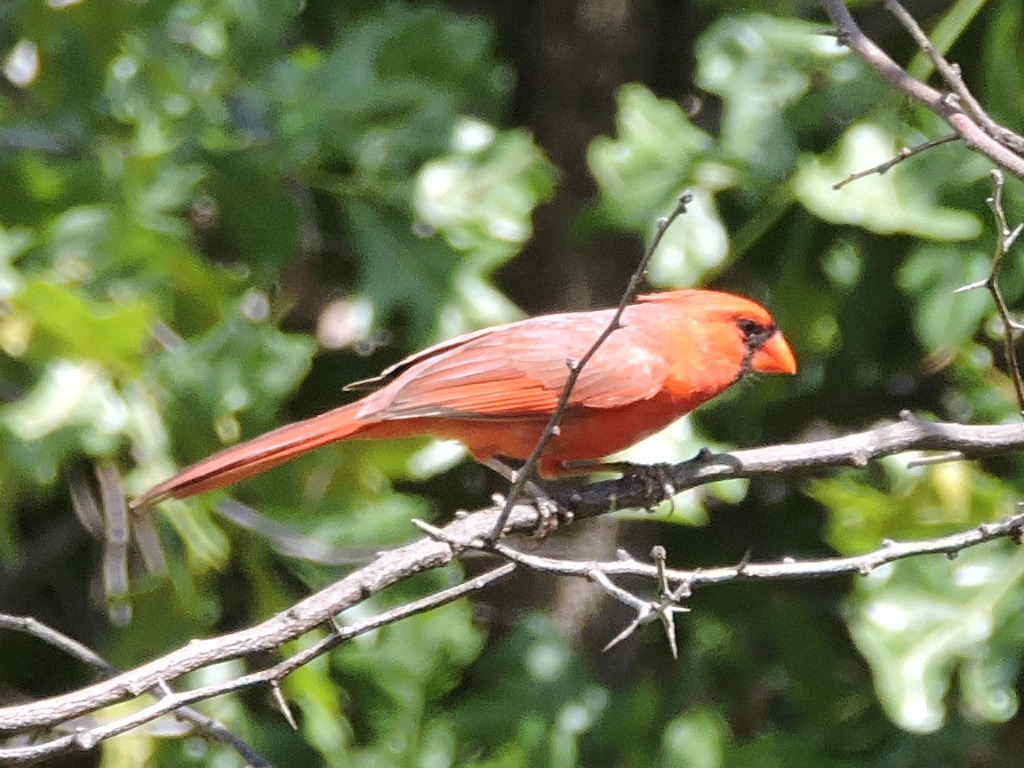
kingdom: Animalia
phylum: Chordata
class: Aves
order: Passeriformes
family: Cardinalidae
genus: Cardinalis
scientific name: Cardinalis cardinalis
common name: Northern cardinal
